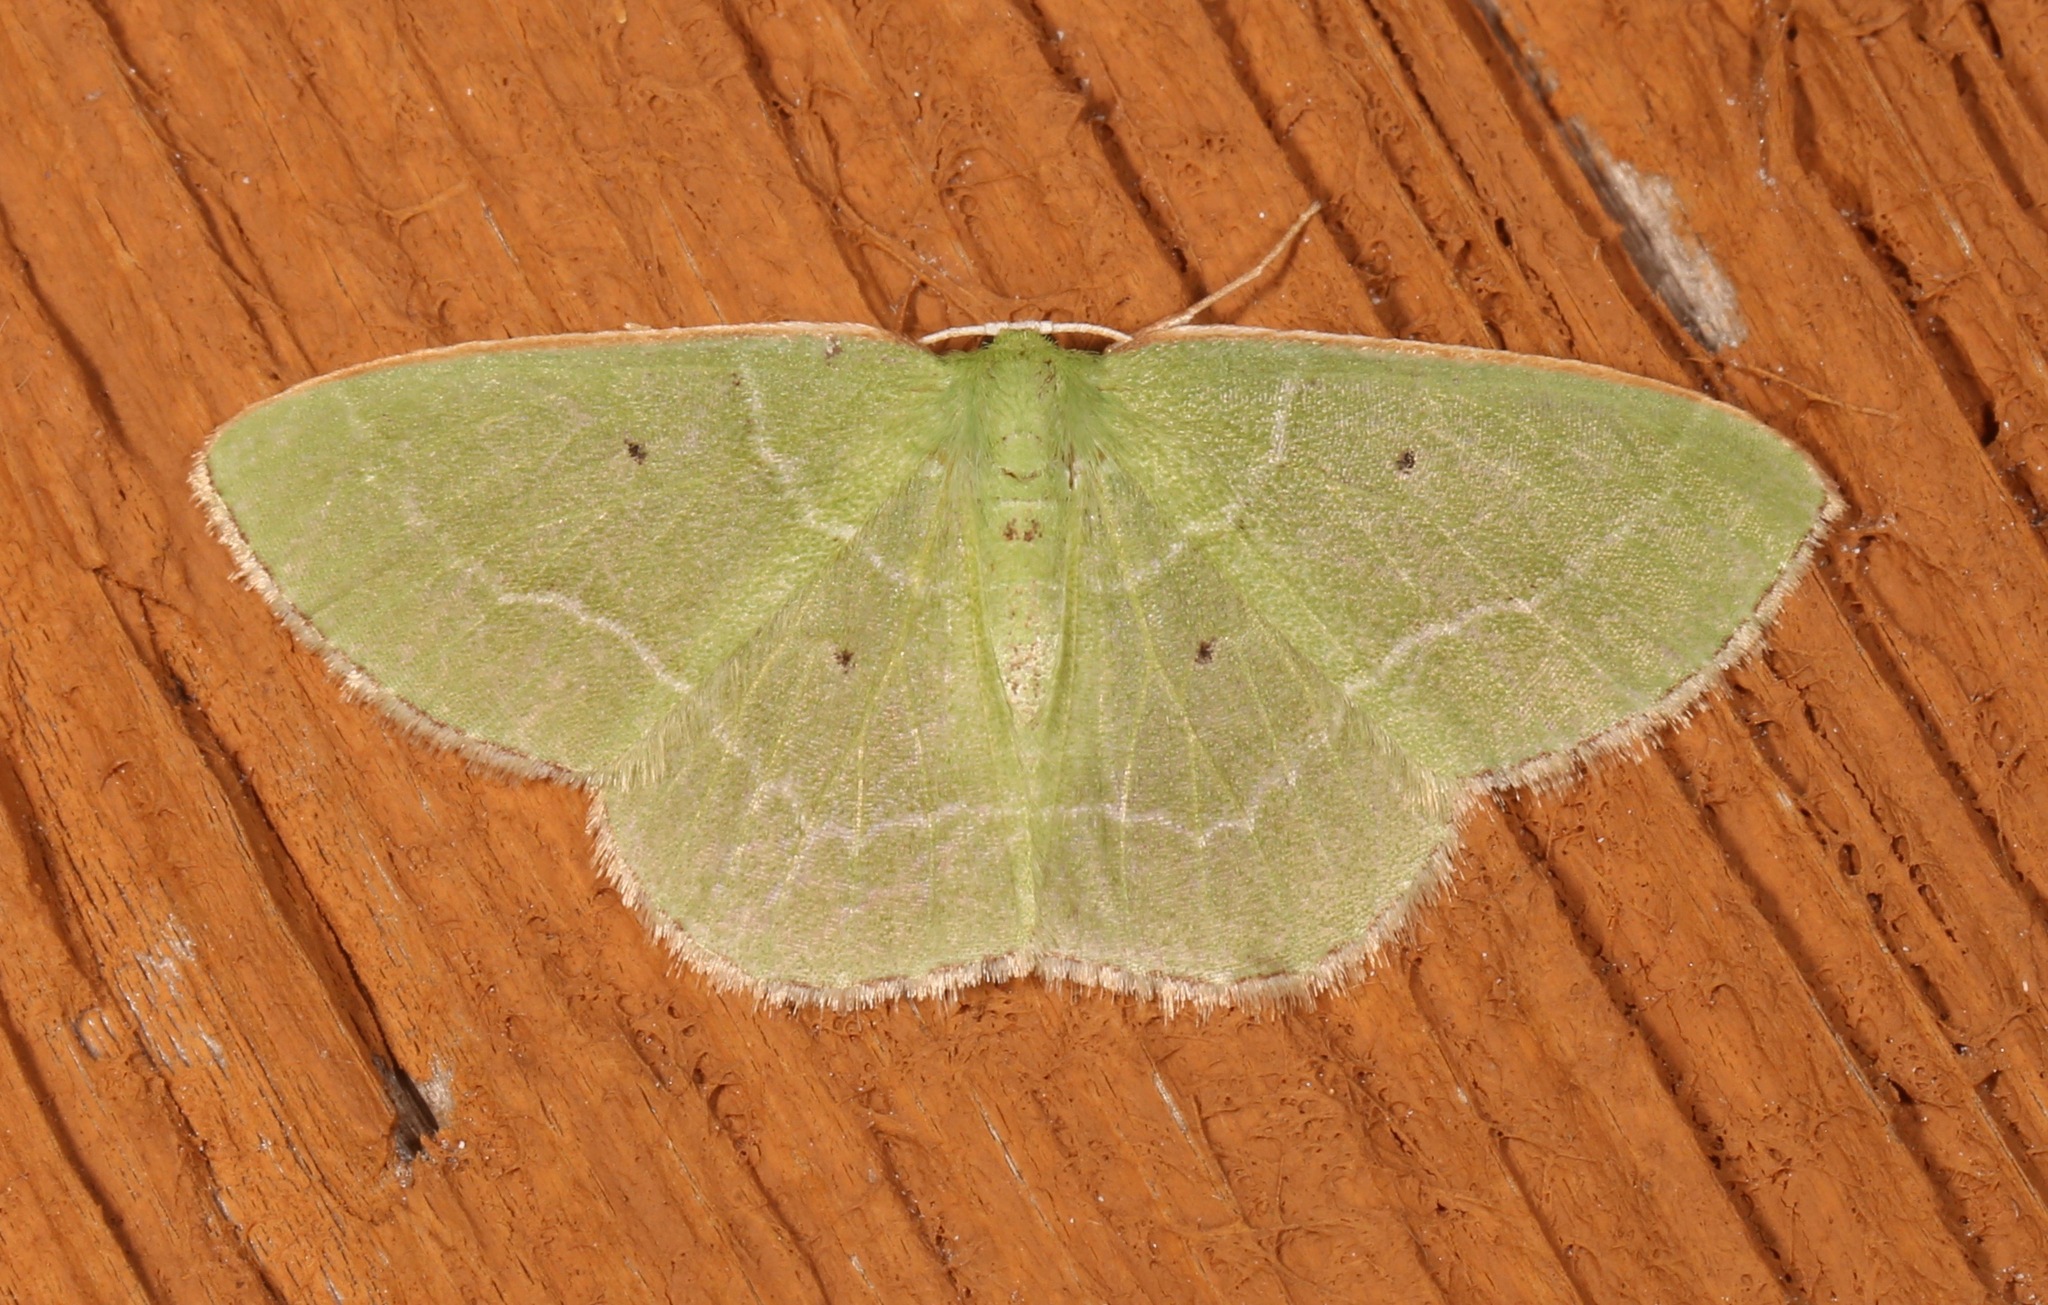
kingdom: Animalia
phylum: Arthropoda
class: Insecta
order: Lepidoptera
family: Geometridae
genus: Nemoria
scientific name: Nemoria elfa
